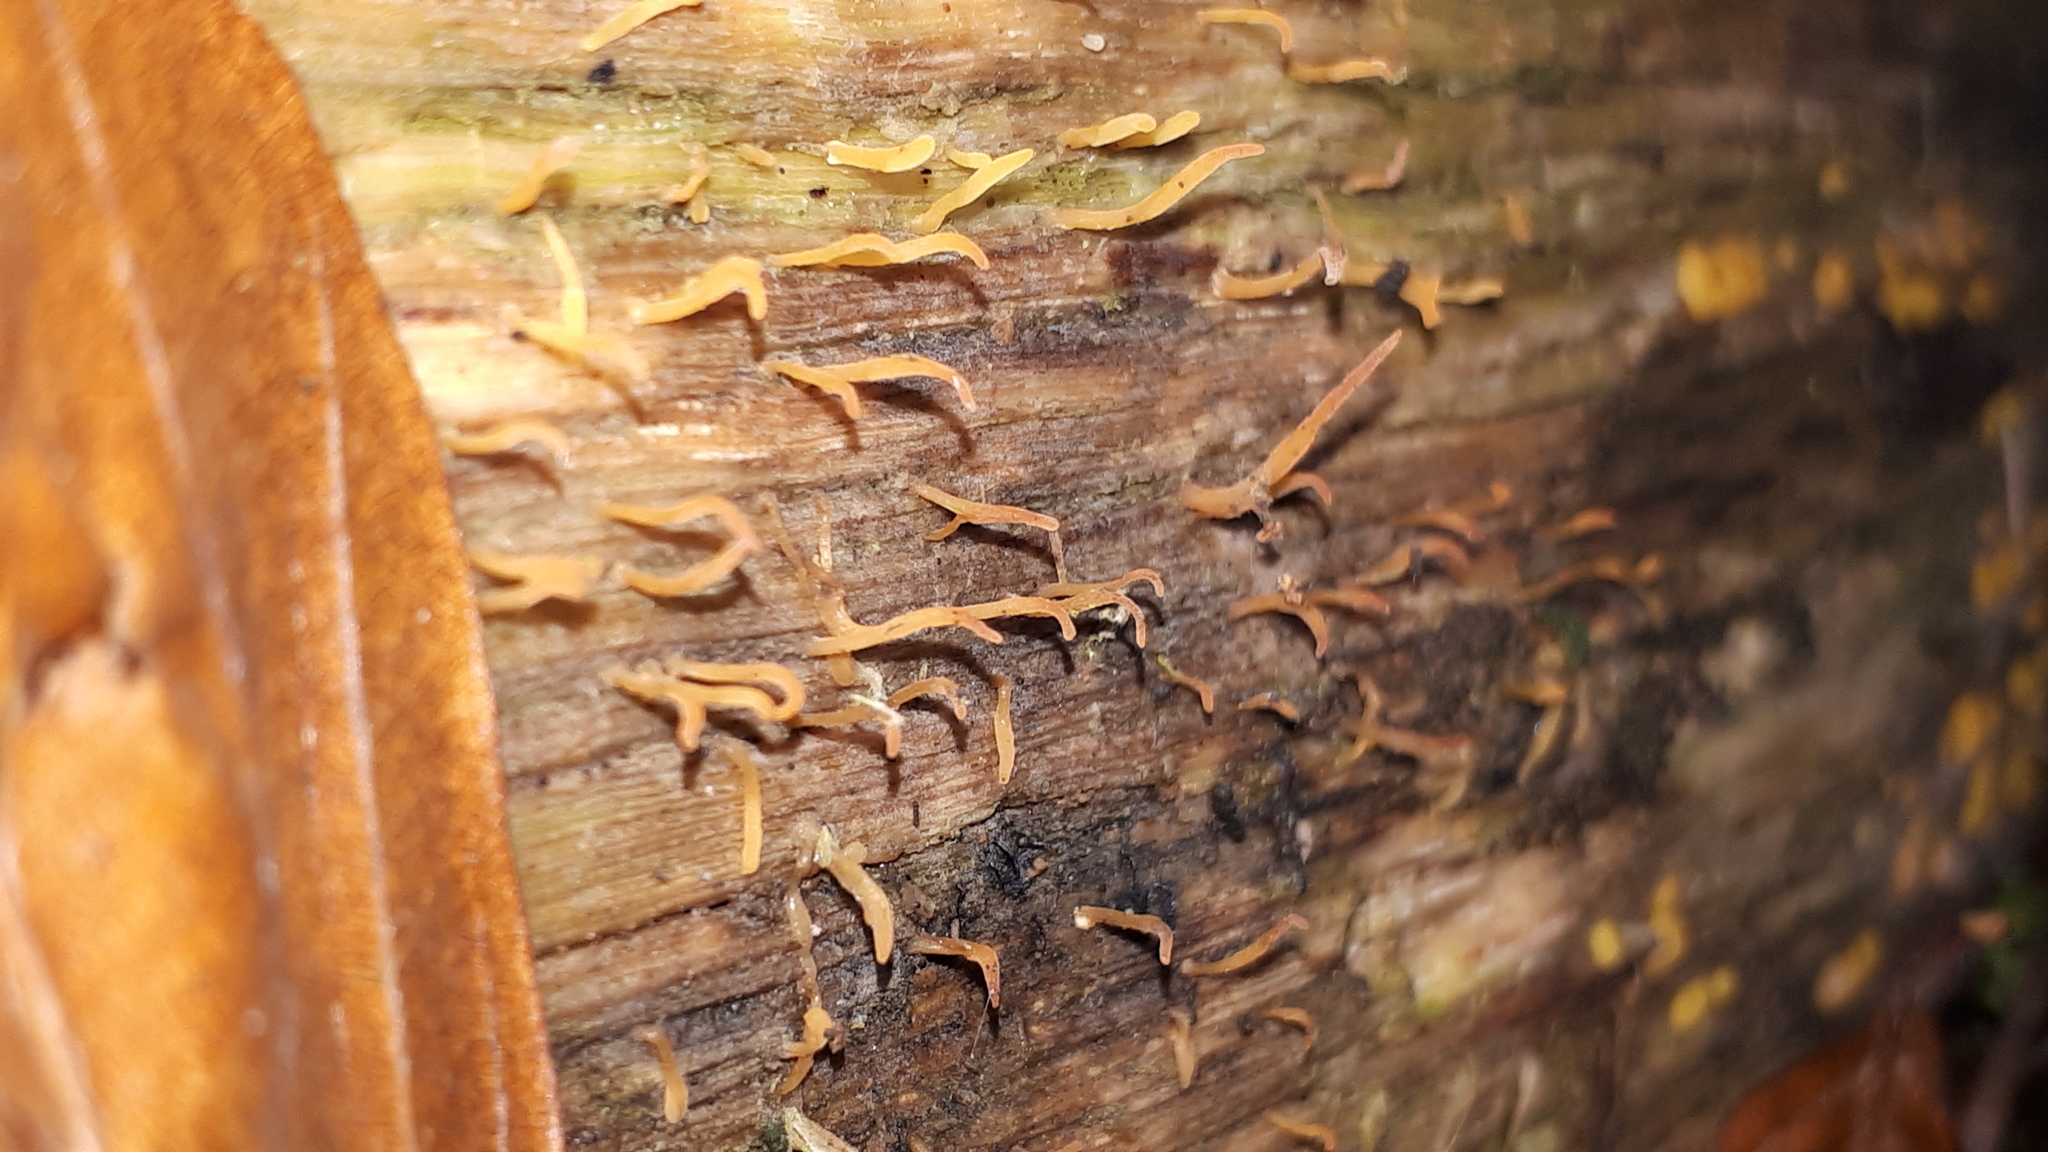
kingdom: Fungi
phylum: Basidiomycota
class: Dacrymycetes
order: Dacrymycetales
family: Dacrymycetaceae
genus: Calocera
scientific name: Calocera cornea
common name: Small stagshorn
